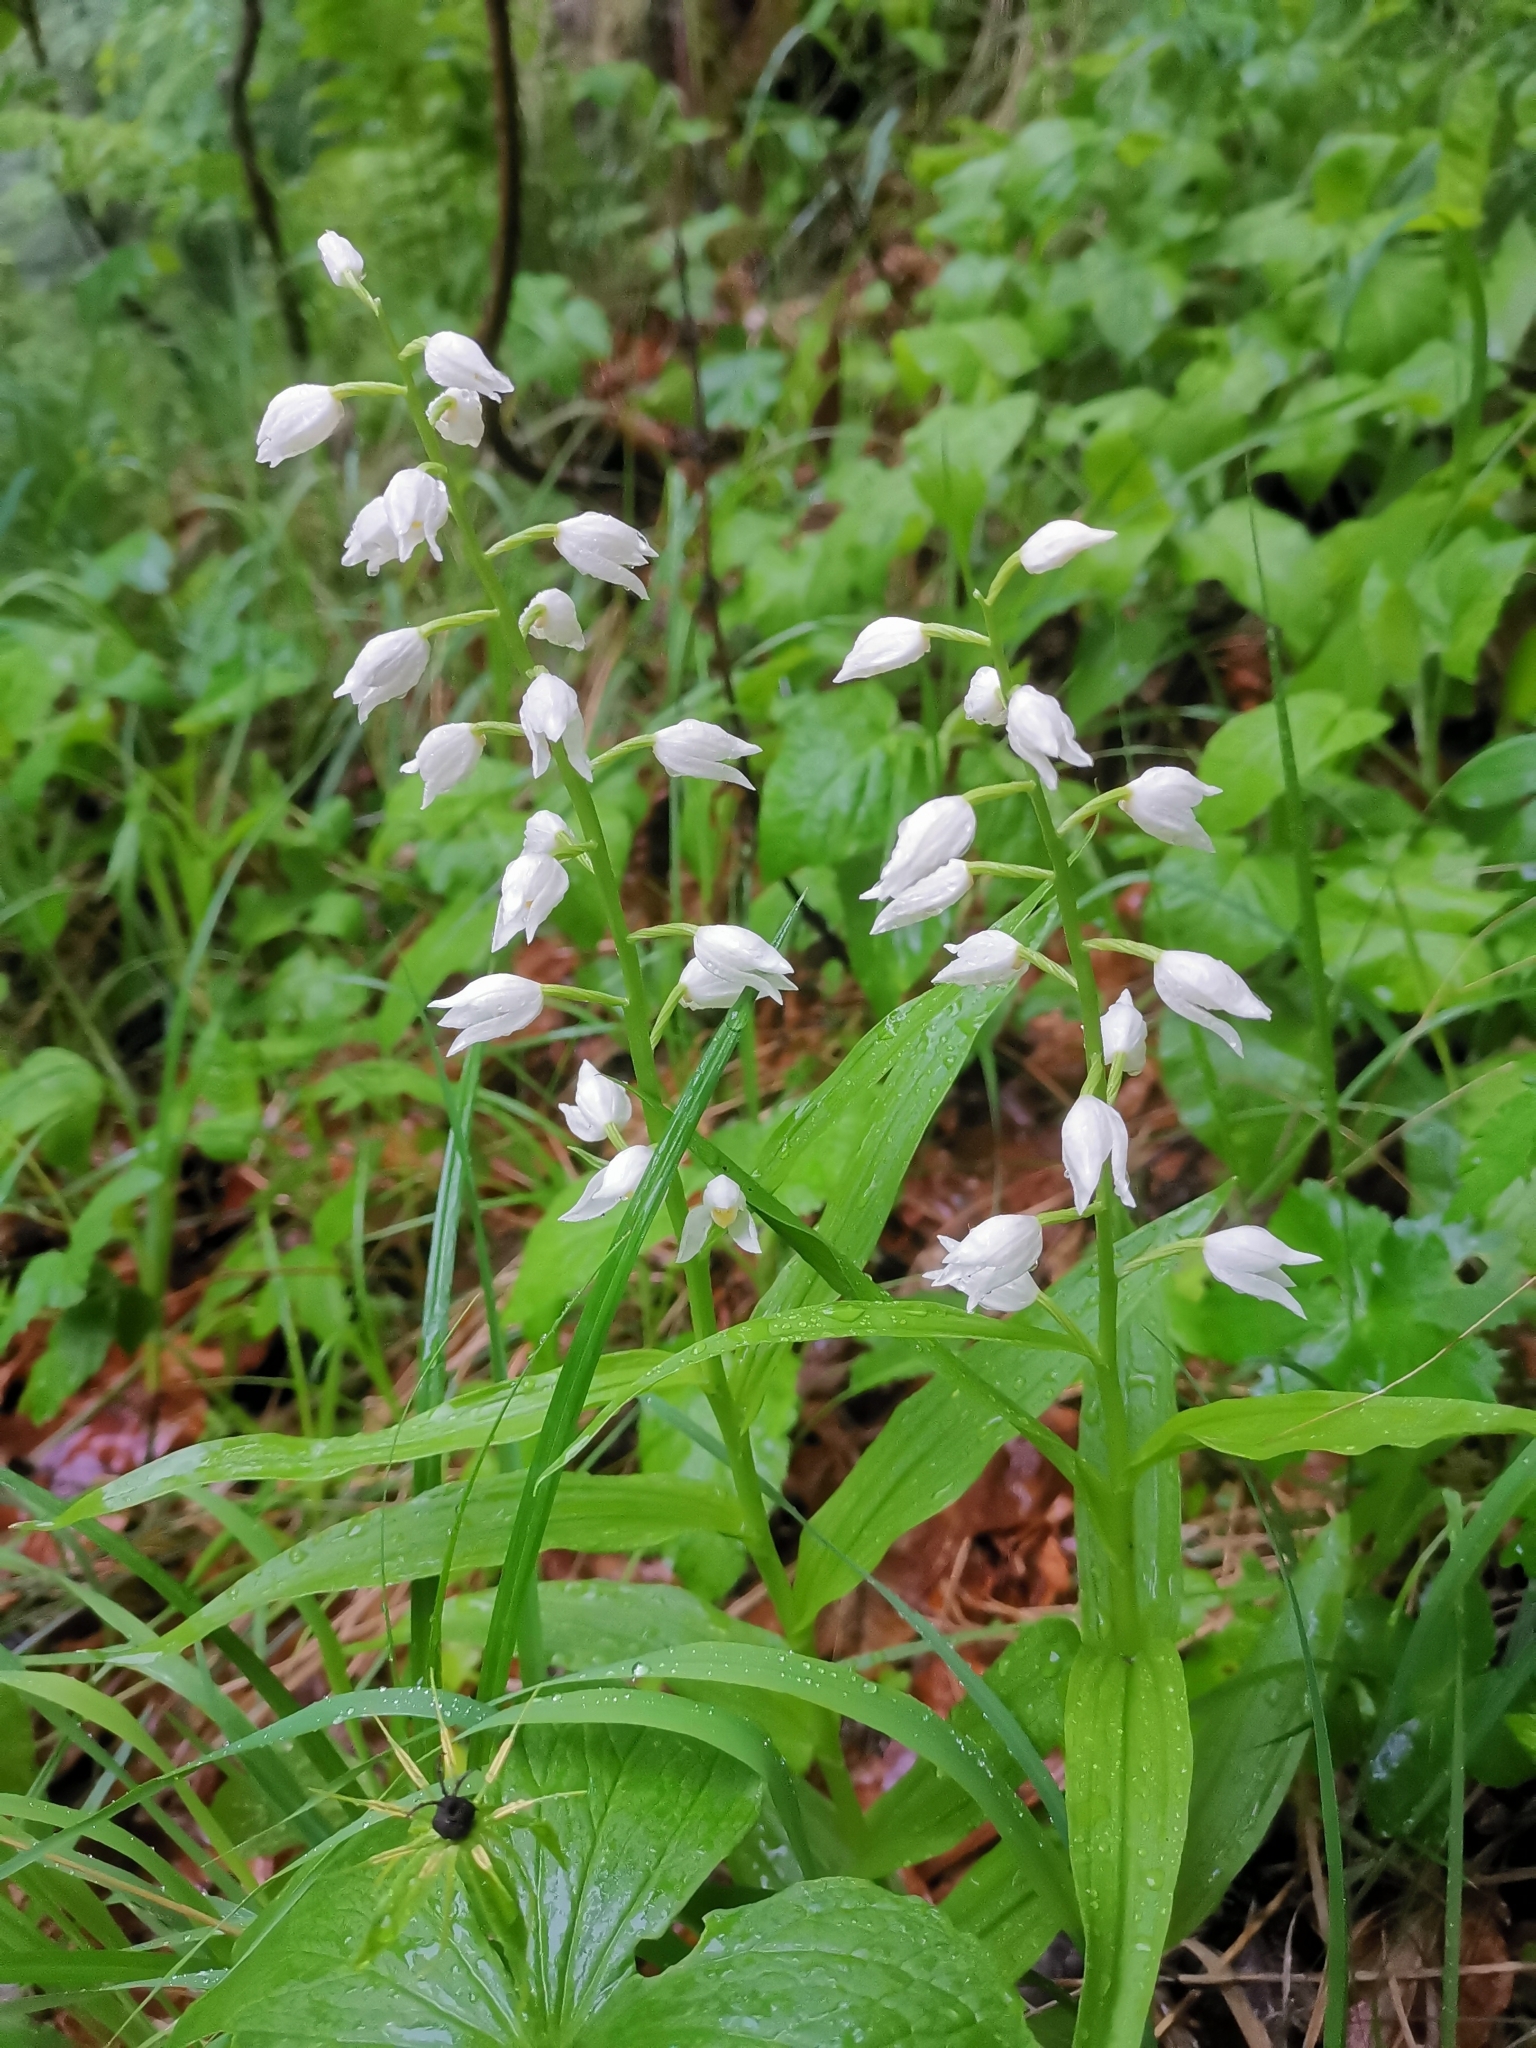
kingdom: Plantae
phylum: Tracheophyta
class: Liliopsida
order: Asparagales
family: Orchidaceae
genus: Cephalanthera
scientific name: Cephalanthera longifolia
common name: Narrow-leaved helleborine
